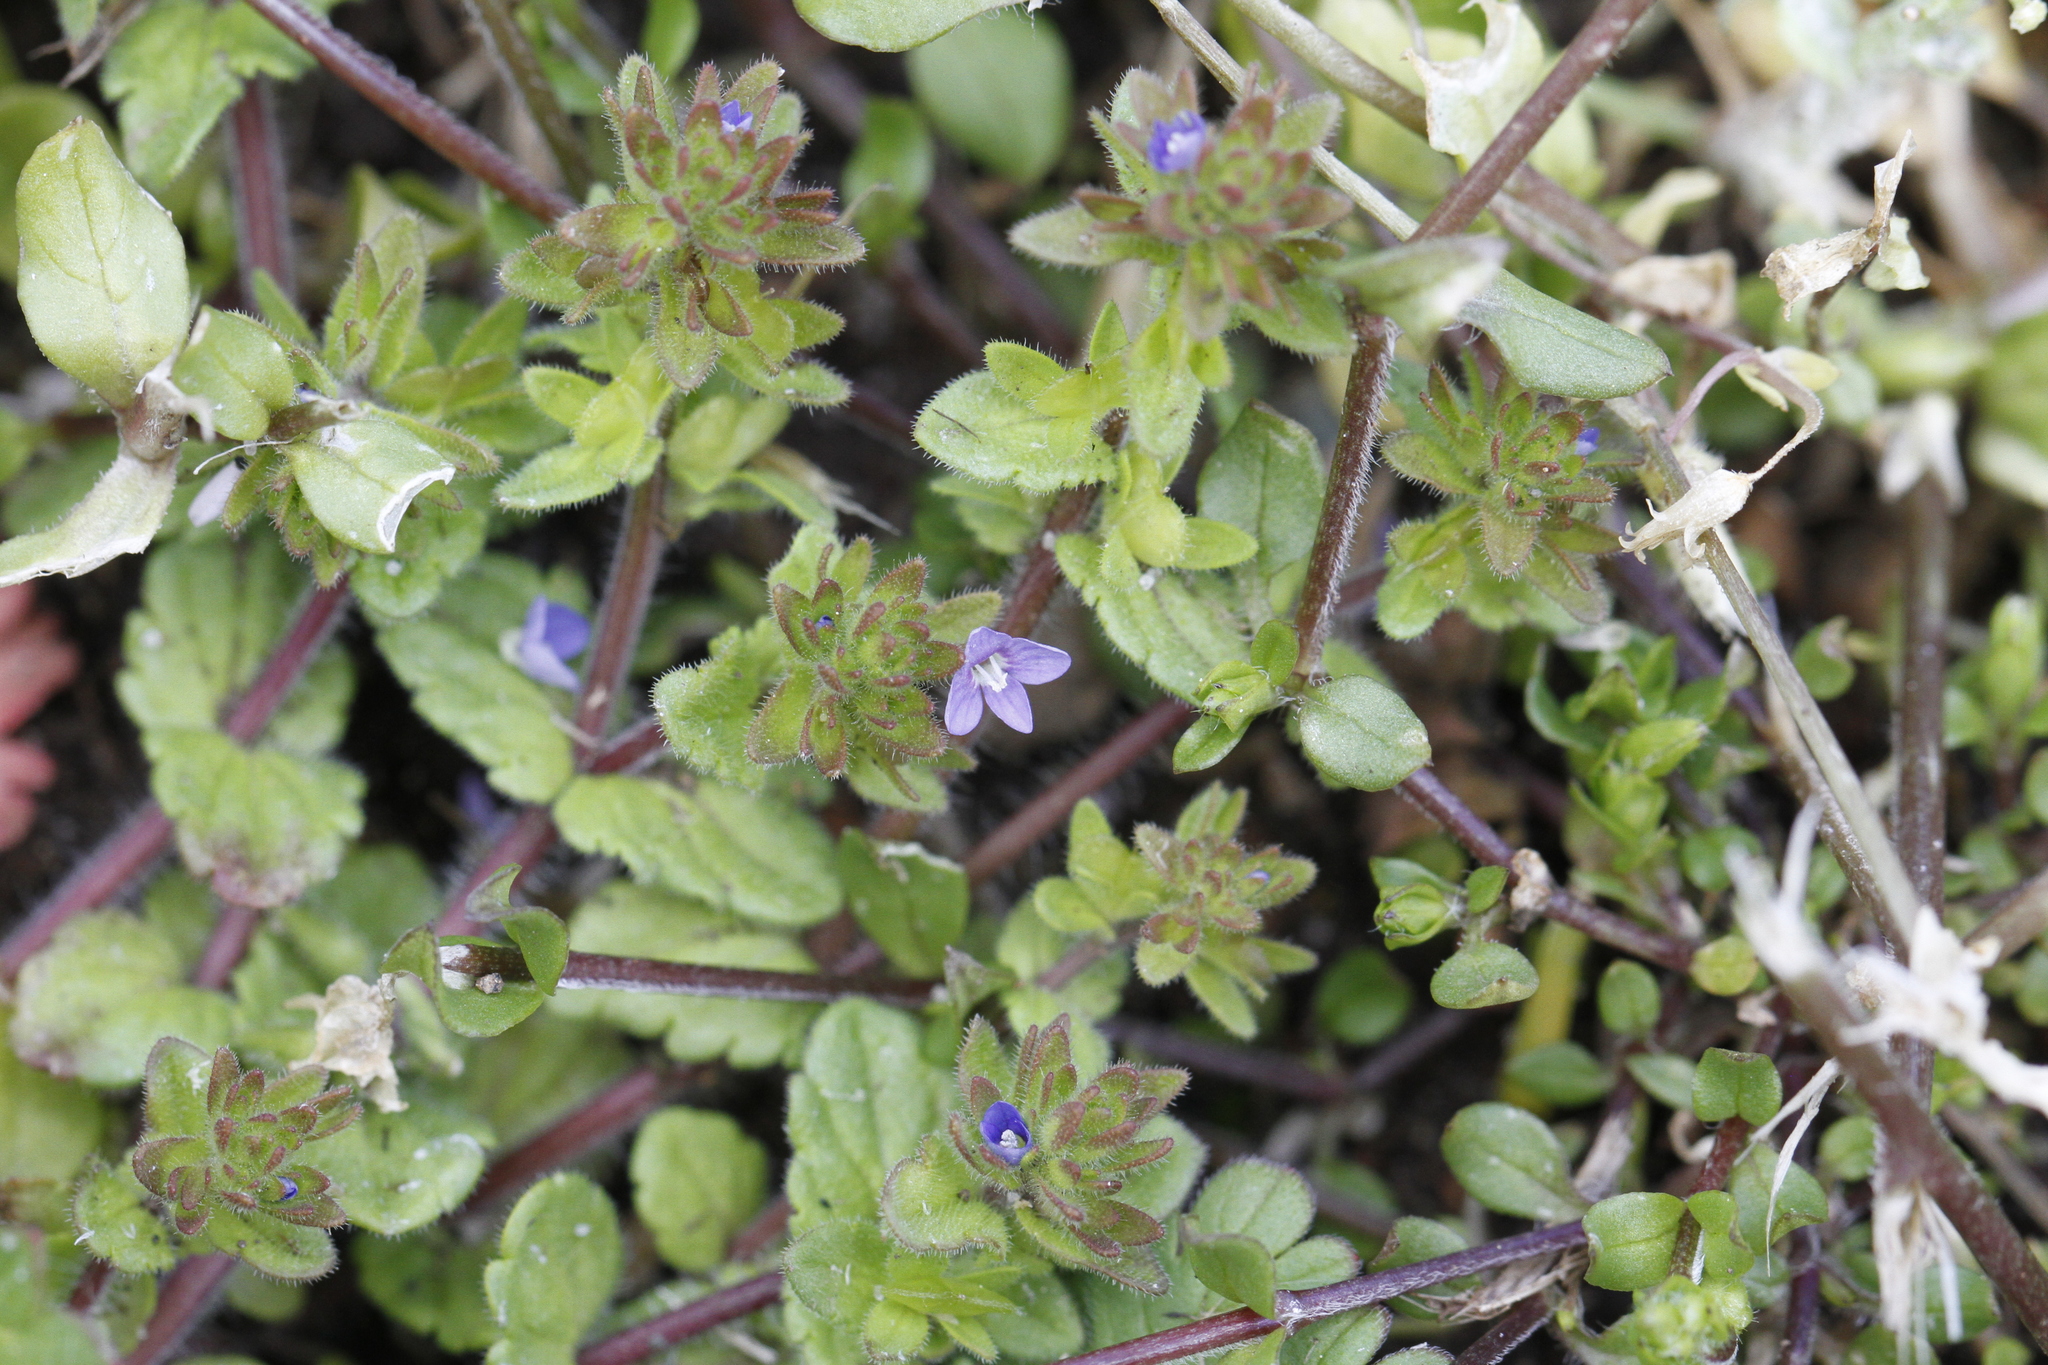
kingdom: Plantae
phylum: Tracheophyta
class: Magnoliopsida
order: Lamiales
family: Plantaginaceae
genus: Veronica
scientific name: Veronica arvensis
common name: Corn speedwell
